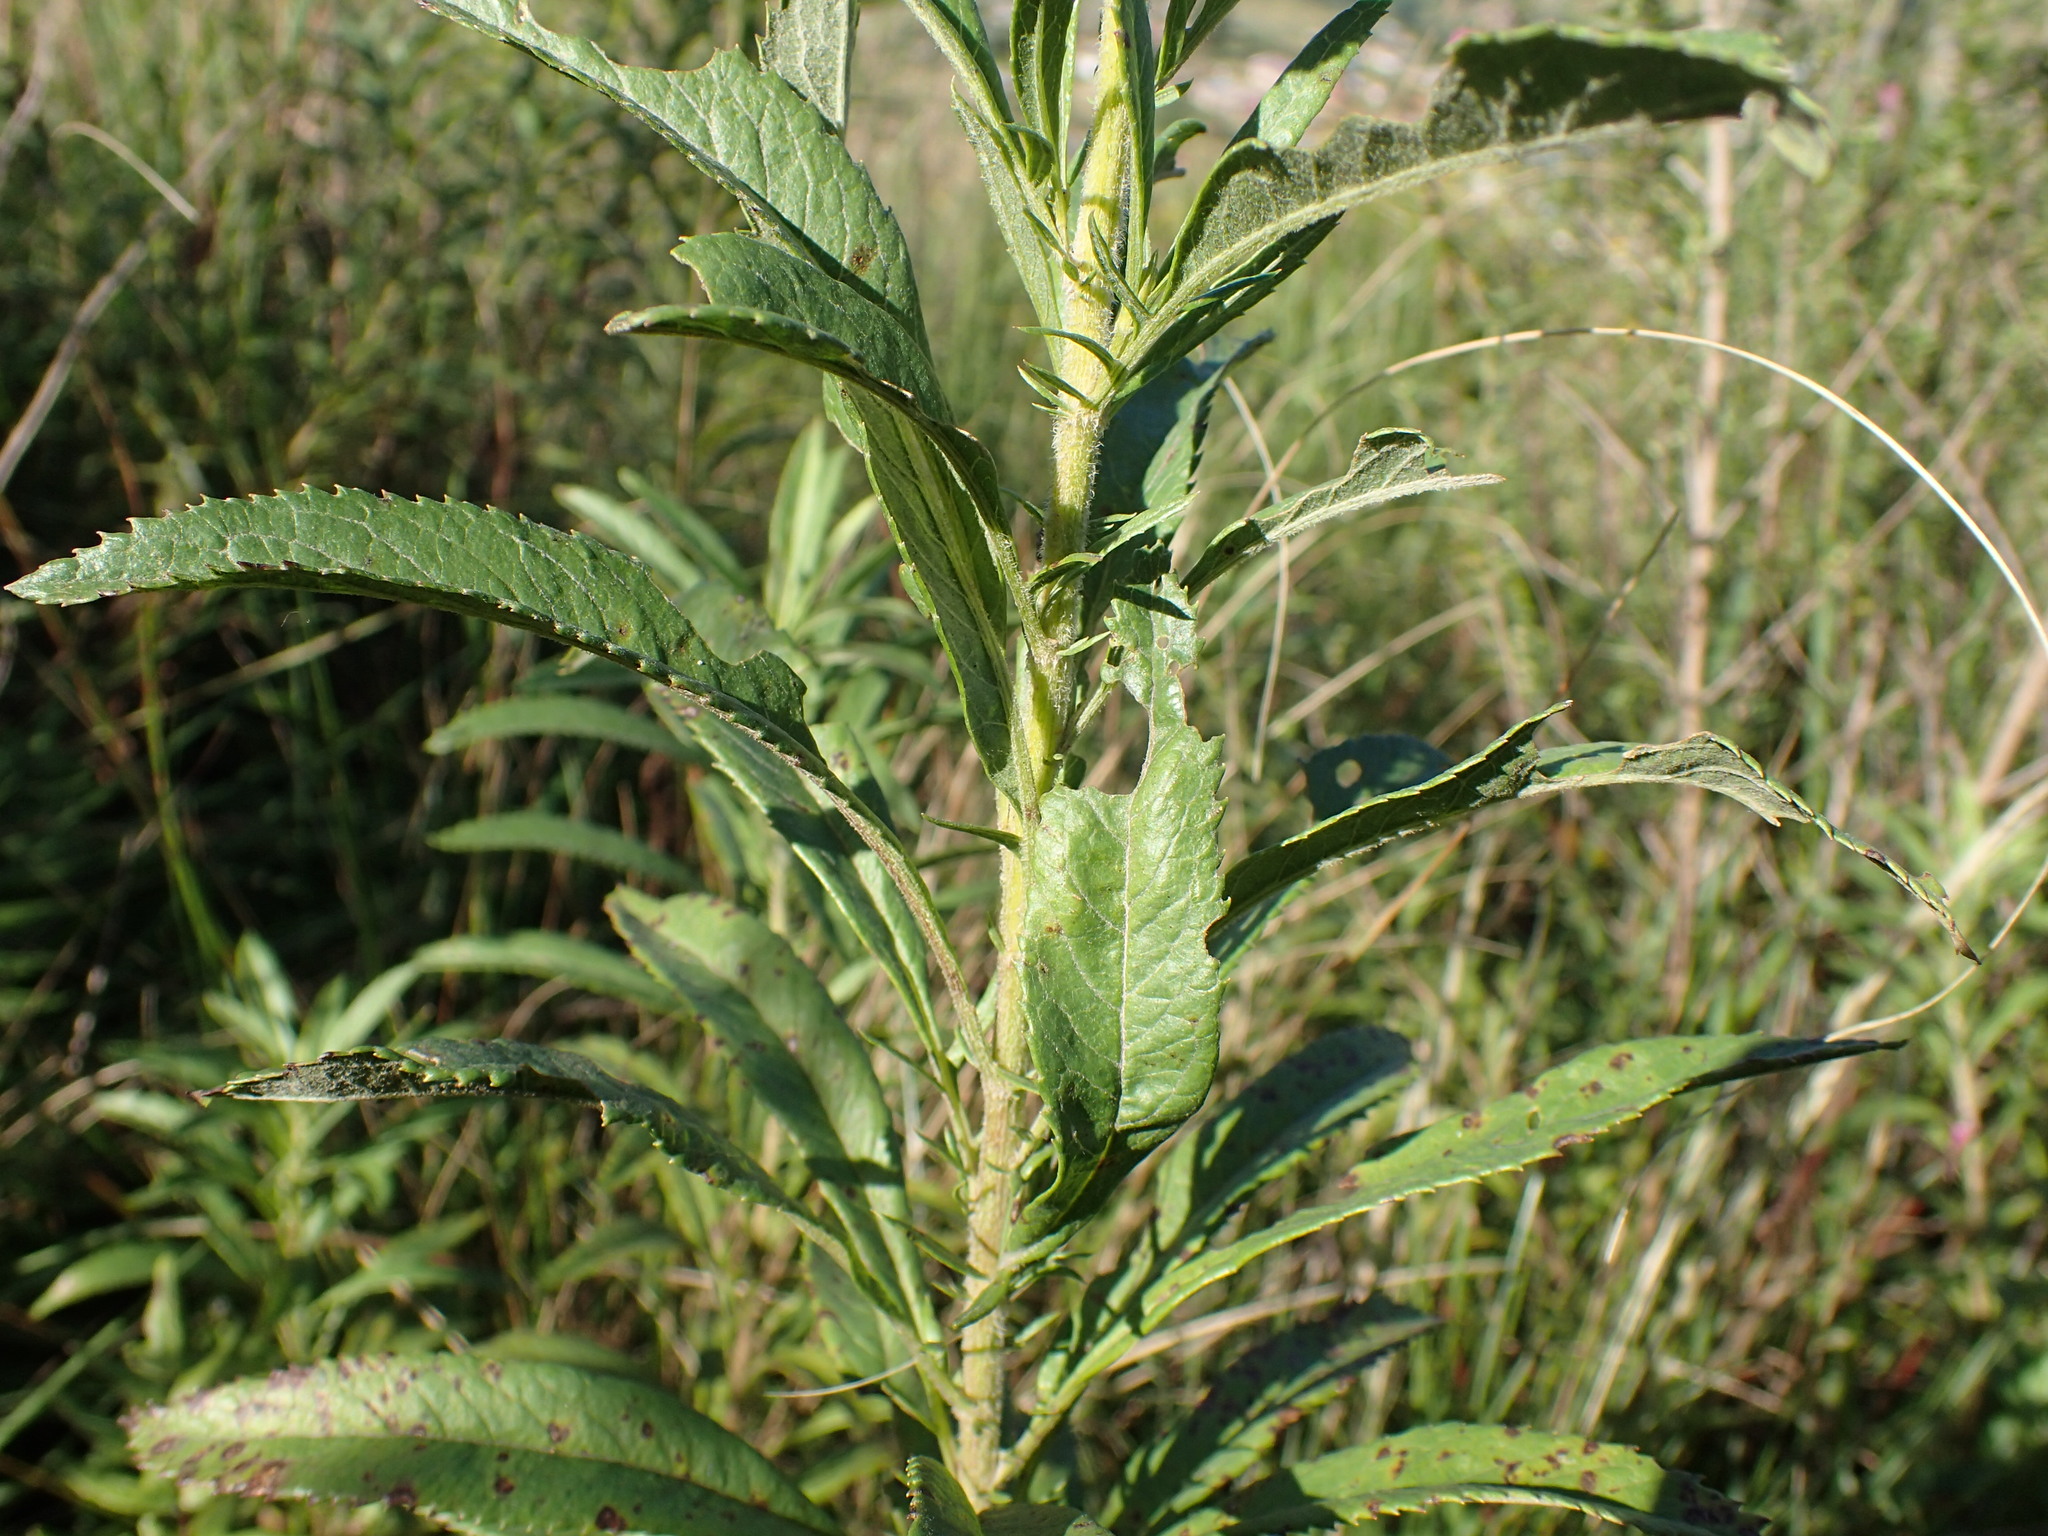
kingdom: Plantae
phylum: Tracheophyta
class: Magnoliopsida
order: Asterales
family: Asteraceae
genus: Senecio
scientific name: Senecio serratuloides
